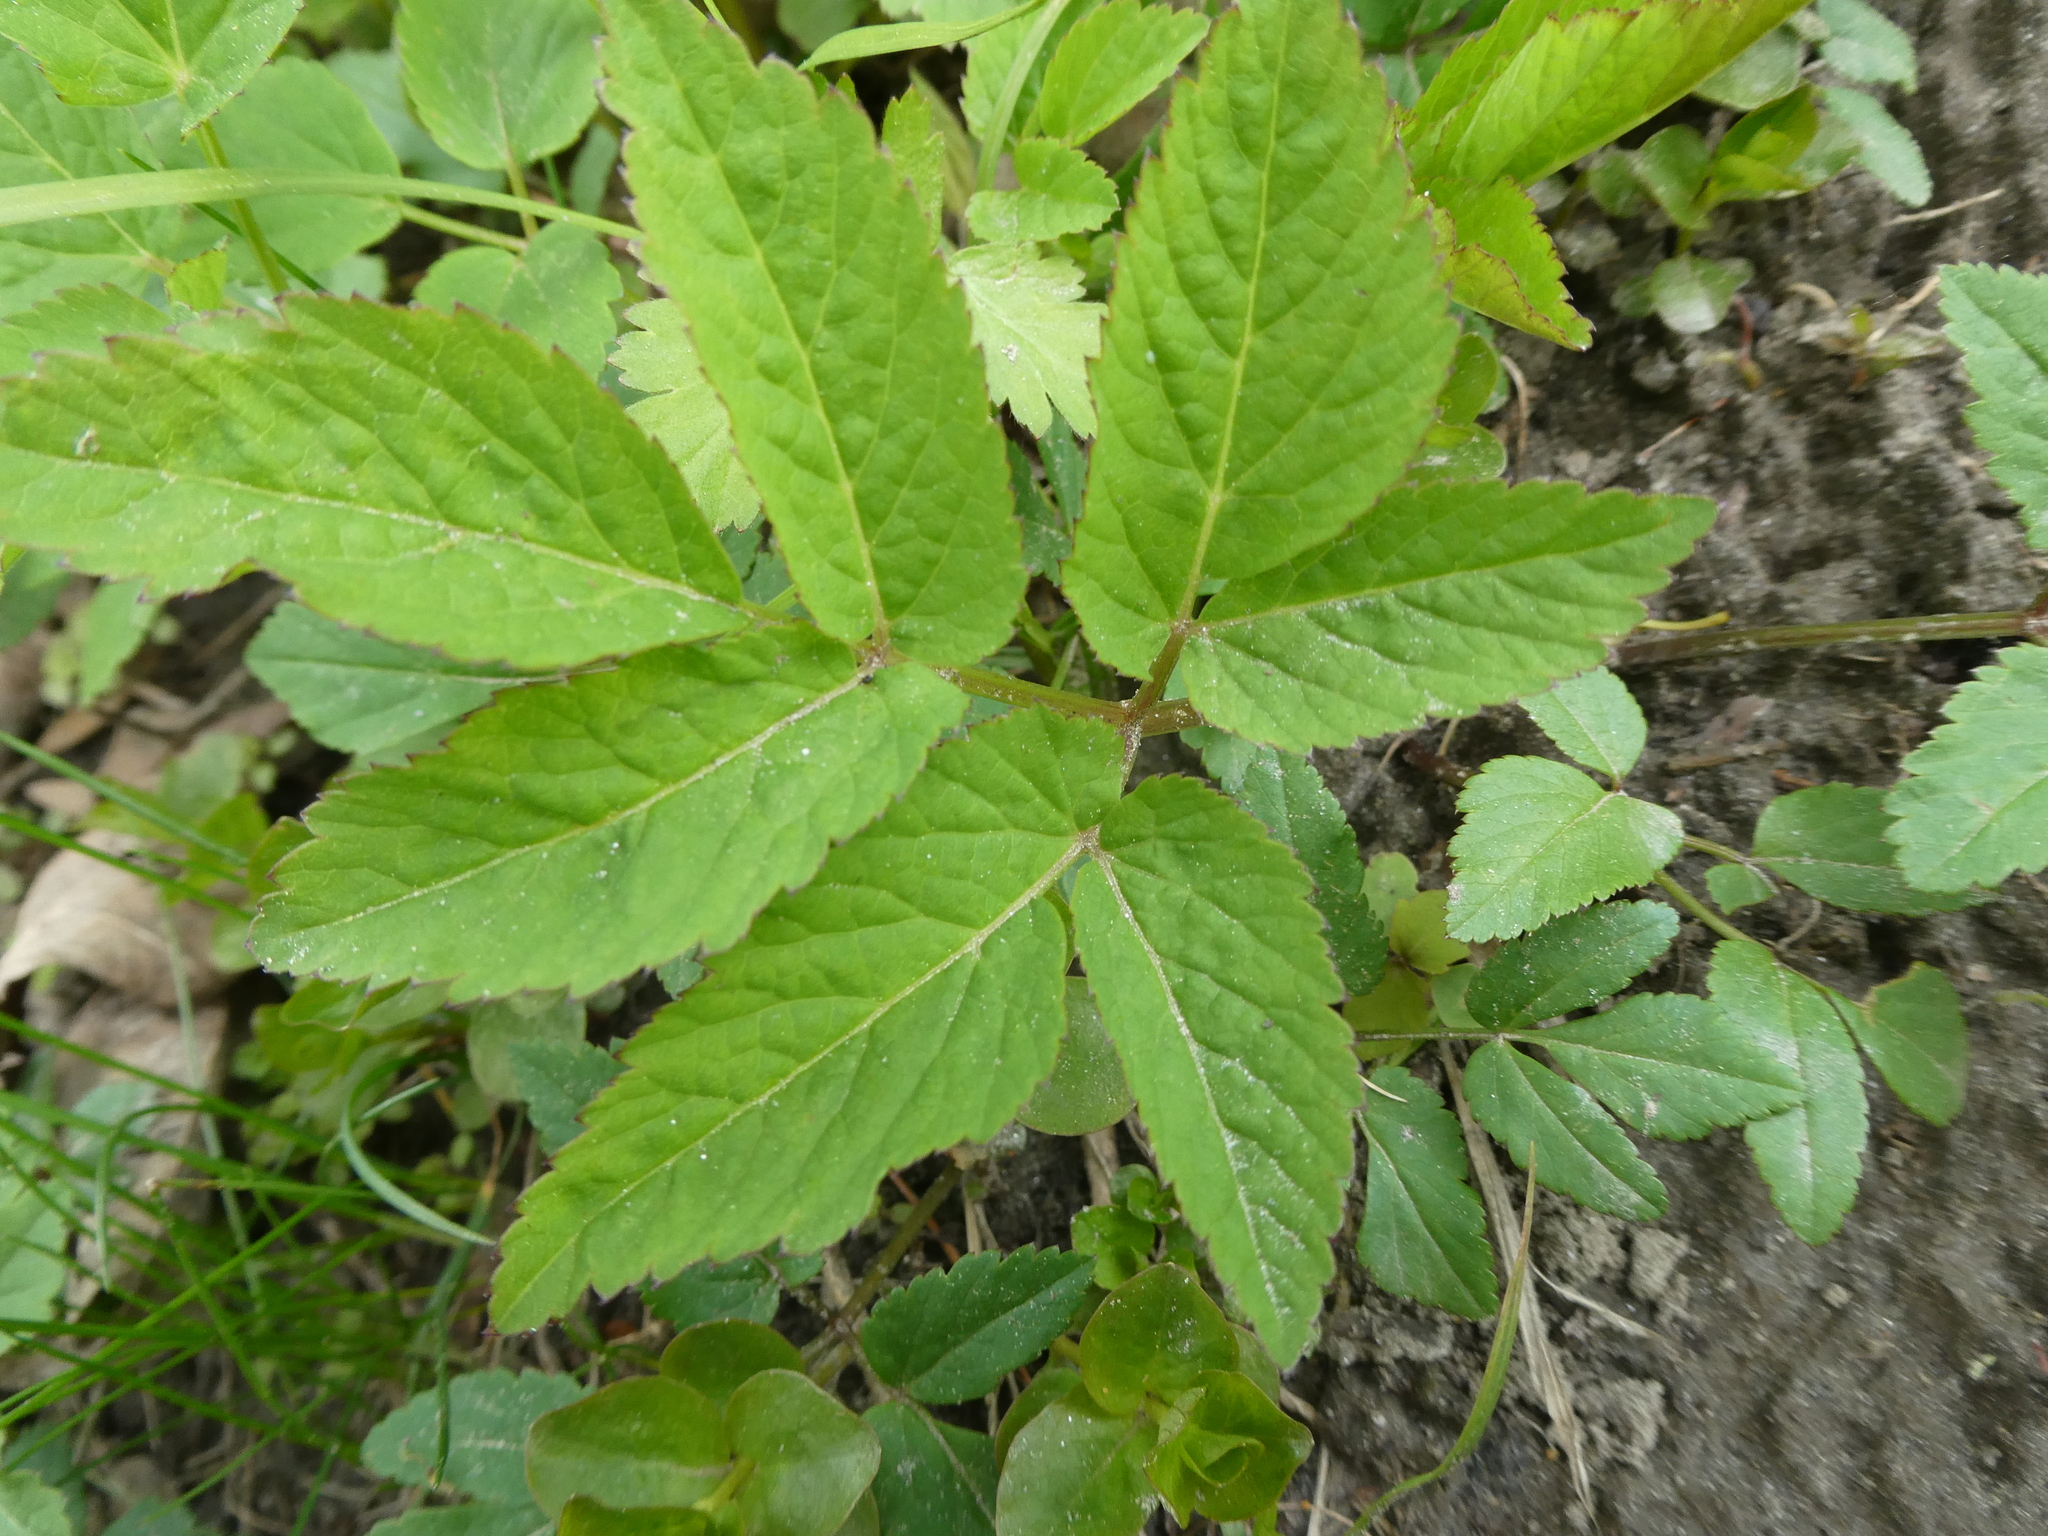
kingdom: Plantae
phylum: Tracheophyta
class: Magnoliopsida
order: Apiales
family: Apiaceae
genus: Aegopodium
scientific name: Aegopodium podagraria
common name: Ground-elder
